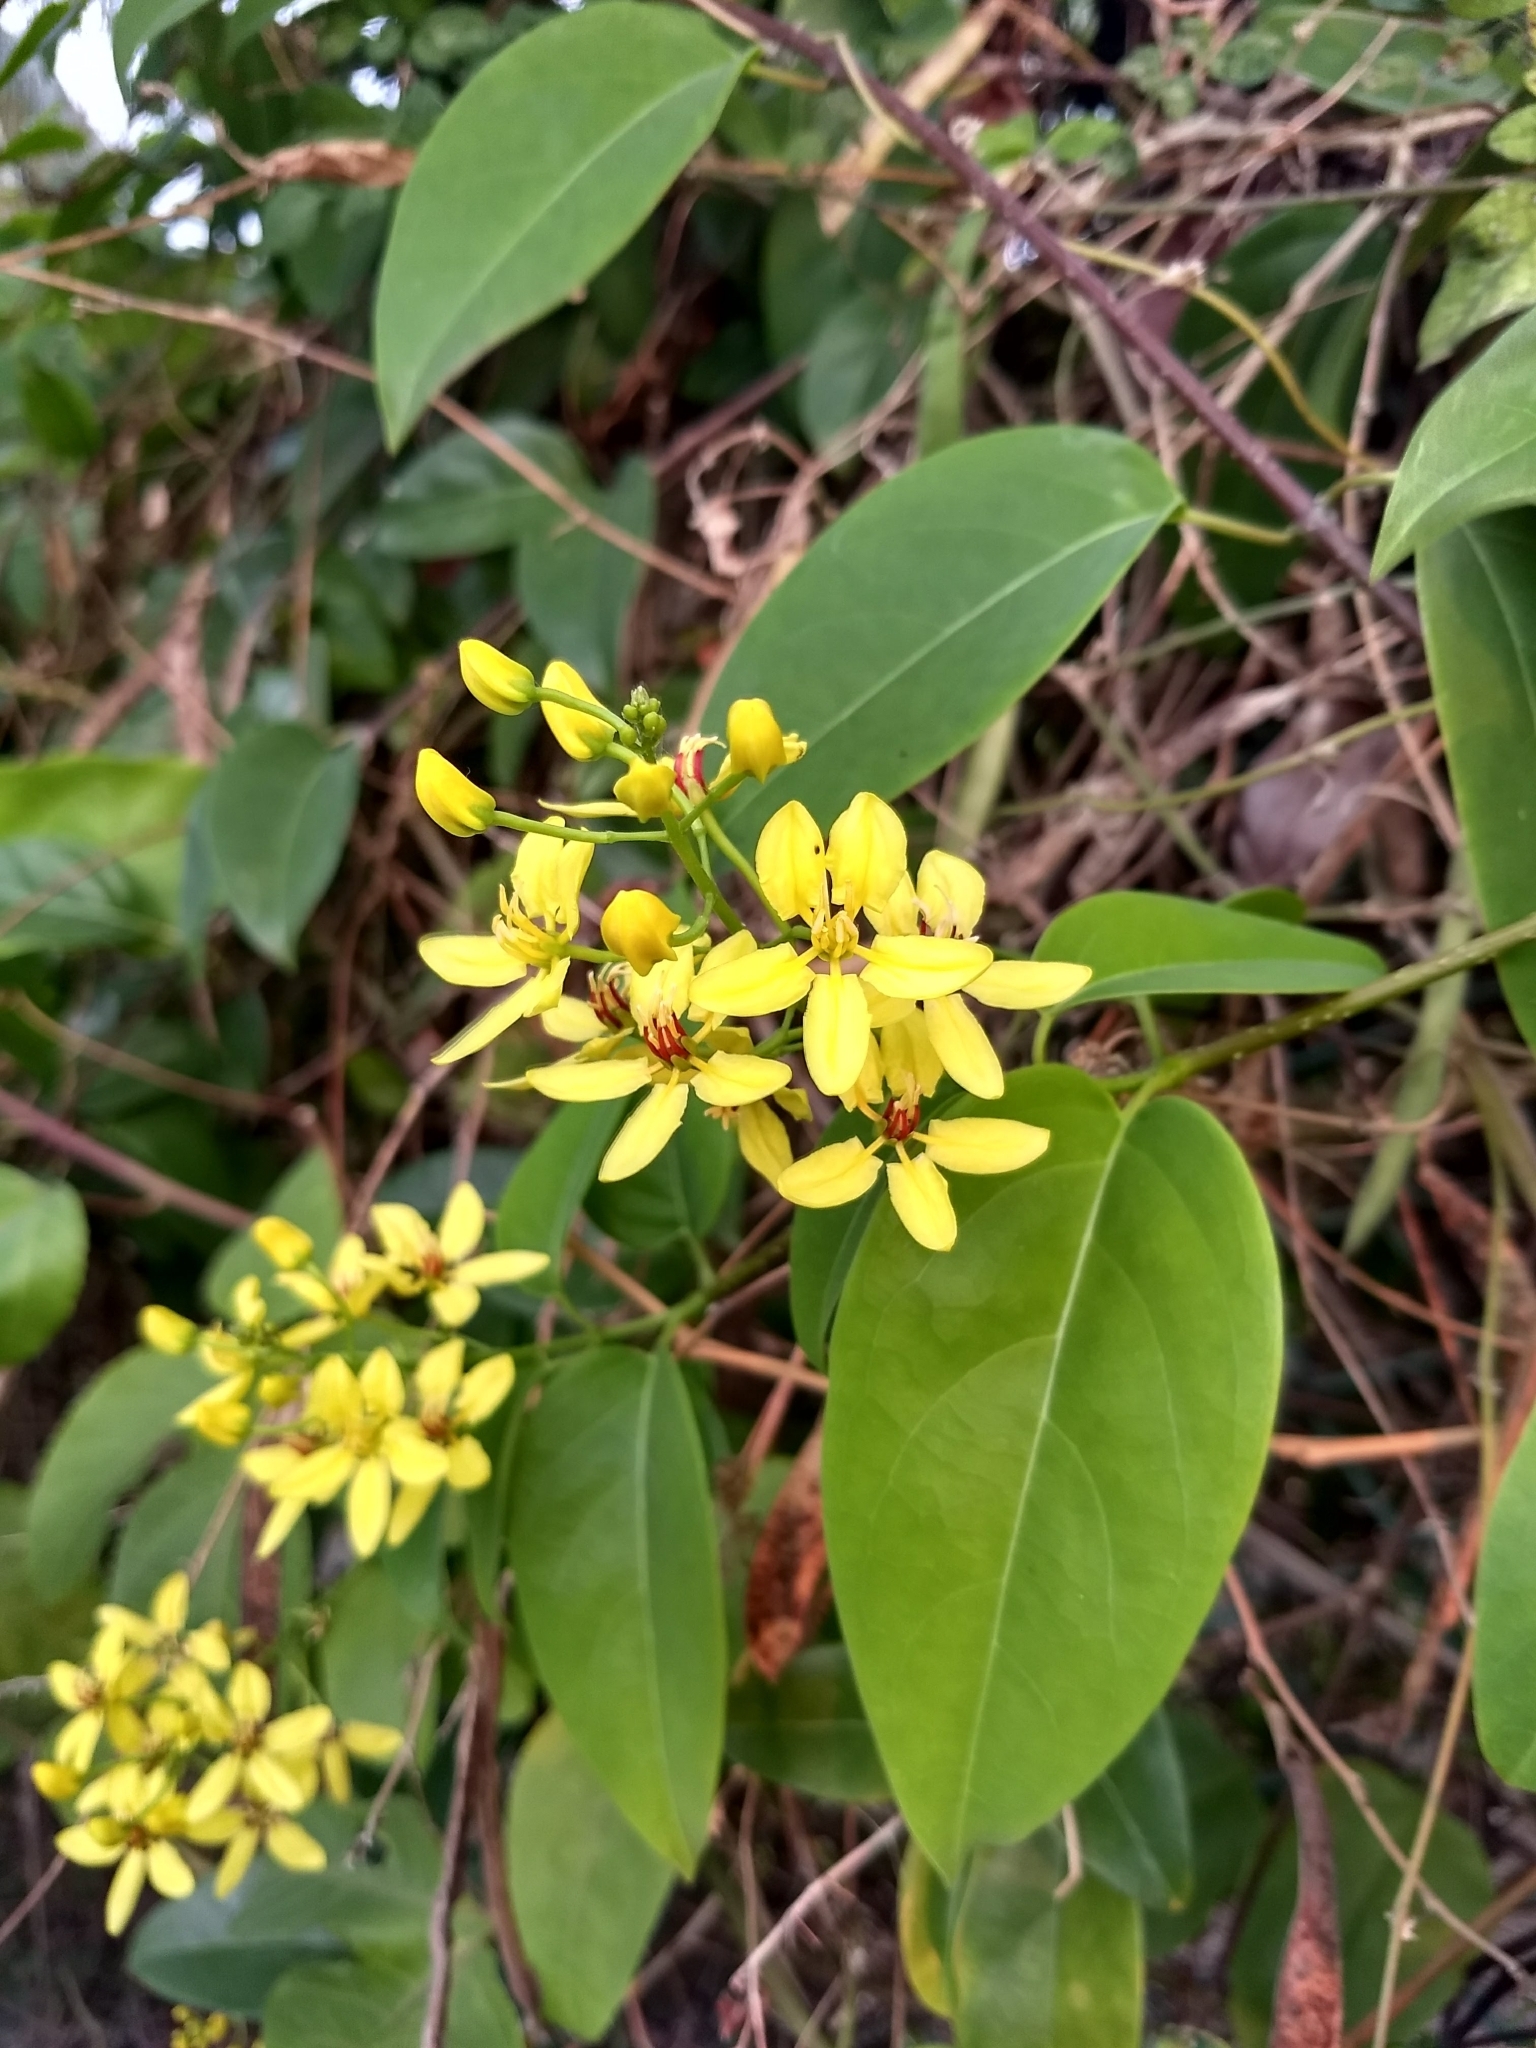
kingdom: Plantae
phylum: Tracheophyta
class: Magnoliopsida
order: Malpighiales
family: Malpighiaceae
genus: Tristellateia
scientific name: Tristellateia australasiae
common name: Australian goldvine
